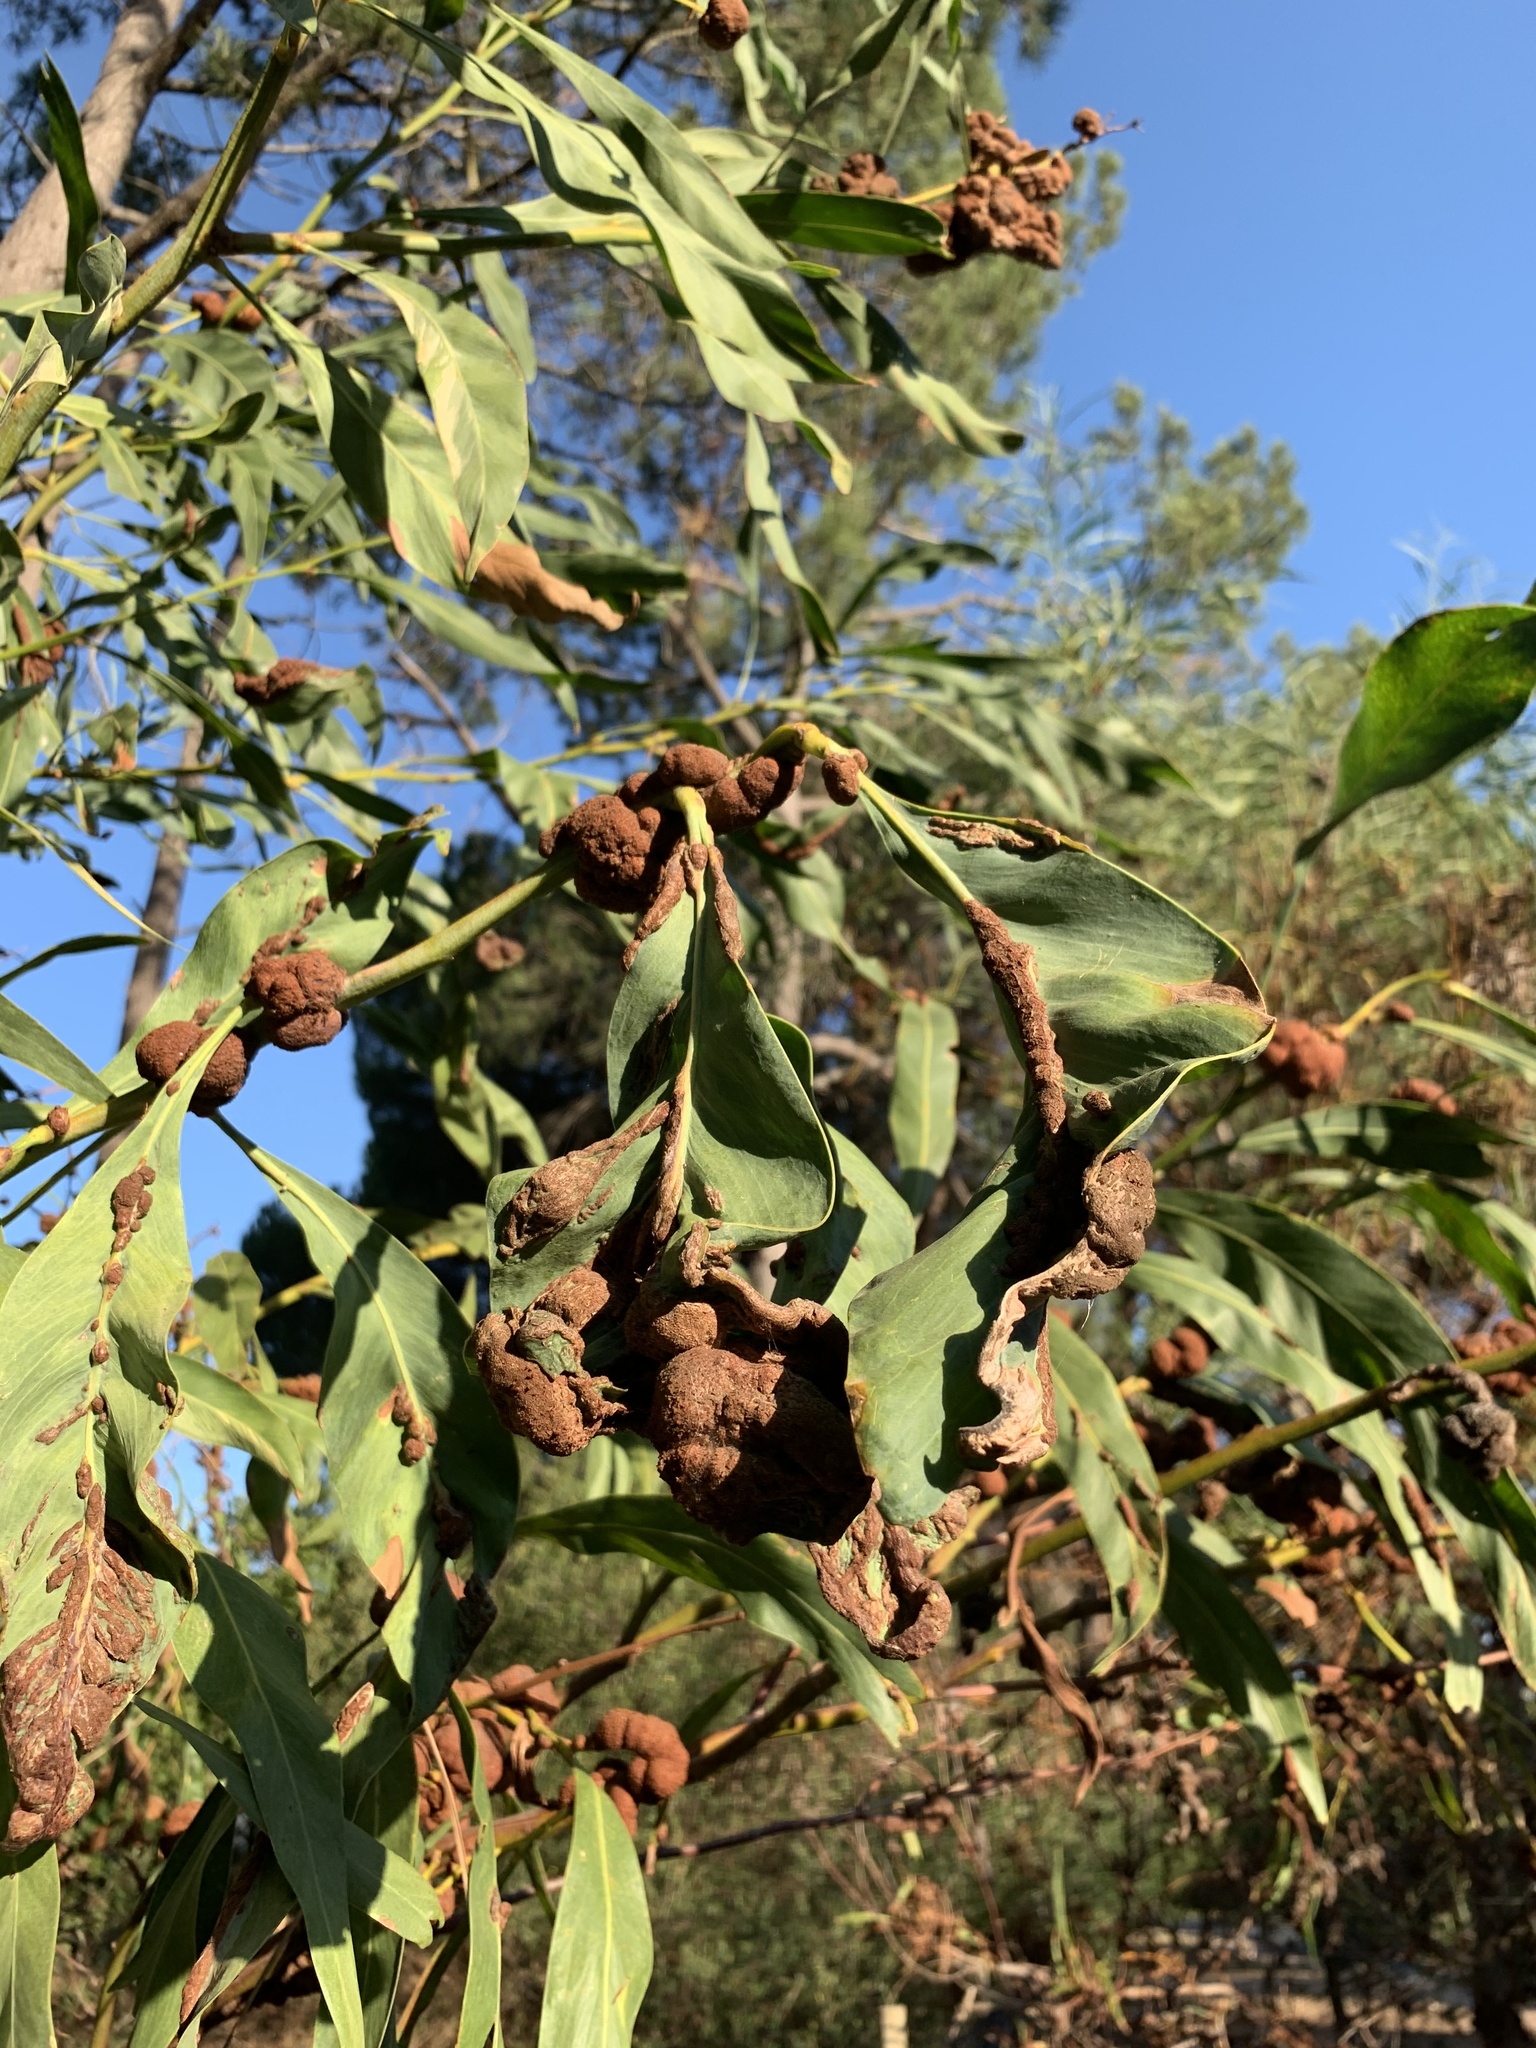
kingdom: Fungi
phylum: Basidiomycota
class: Pucciniomycetes
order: Pucciniales
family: Uromycladiaceae
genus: Uromycladium
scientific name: Uromycladium morrisii
